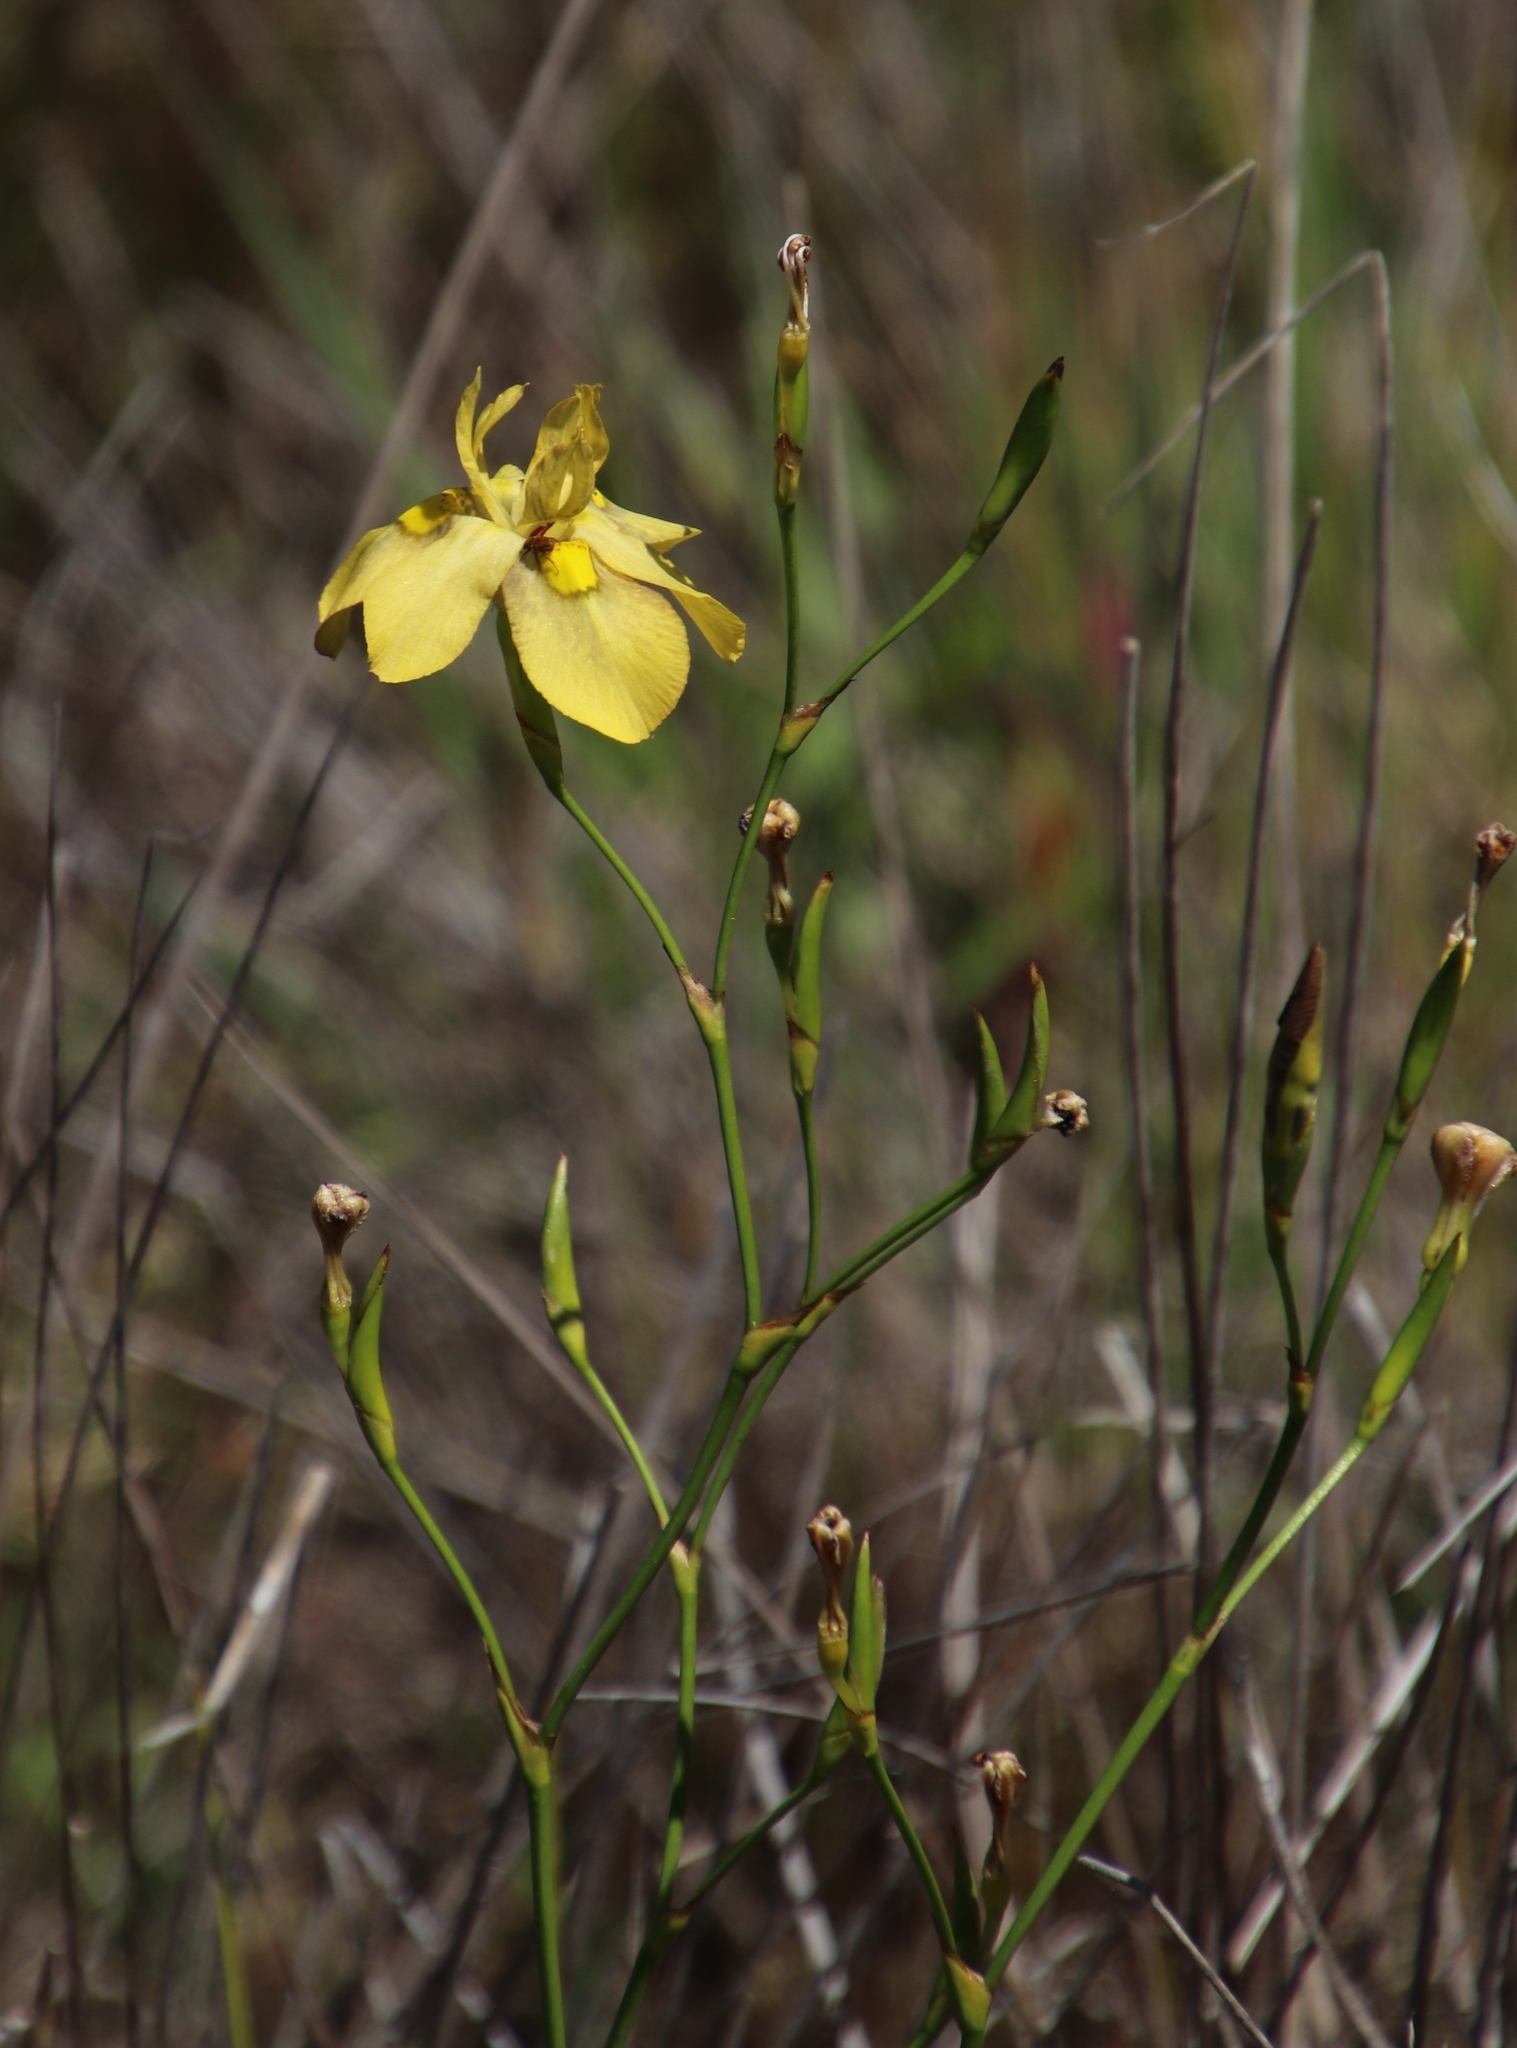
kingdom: Plantae
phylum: Tracheophyta
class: Liliopsida
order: Asparagales
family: Iridaceae
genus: Moraea
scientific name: Moraea ramosissima
